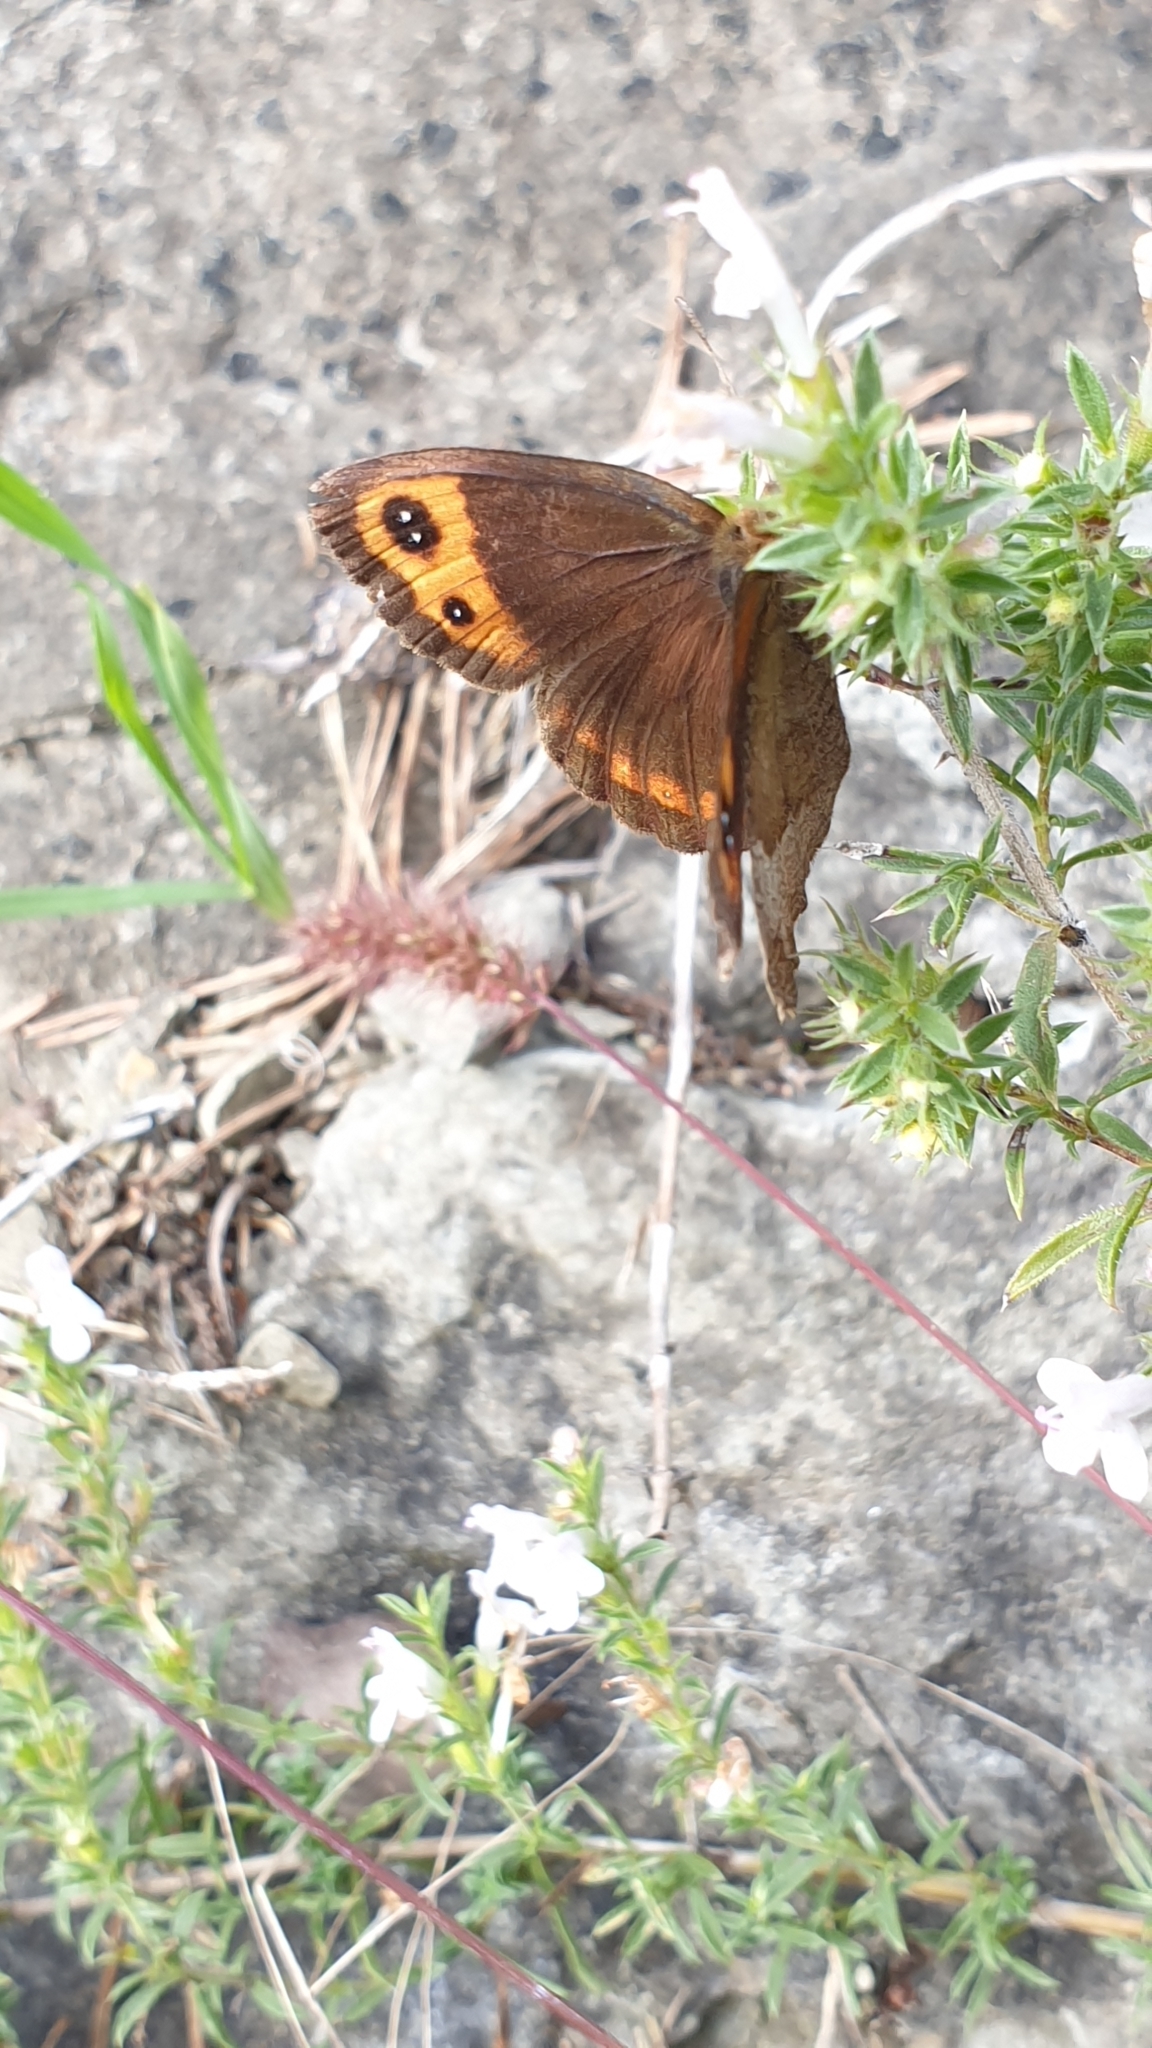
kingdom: Animalia
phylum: Arthropoda
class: Insecta
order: Lepidoptera
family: Nymphalidae
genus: Erebia
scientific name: Erebia neoridas
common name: Autumn ringlet
